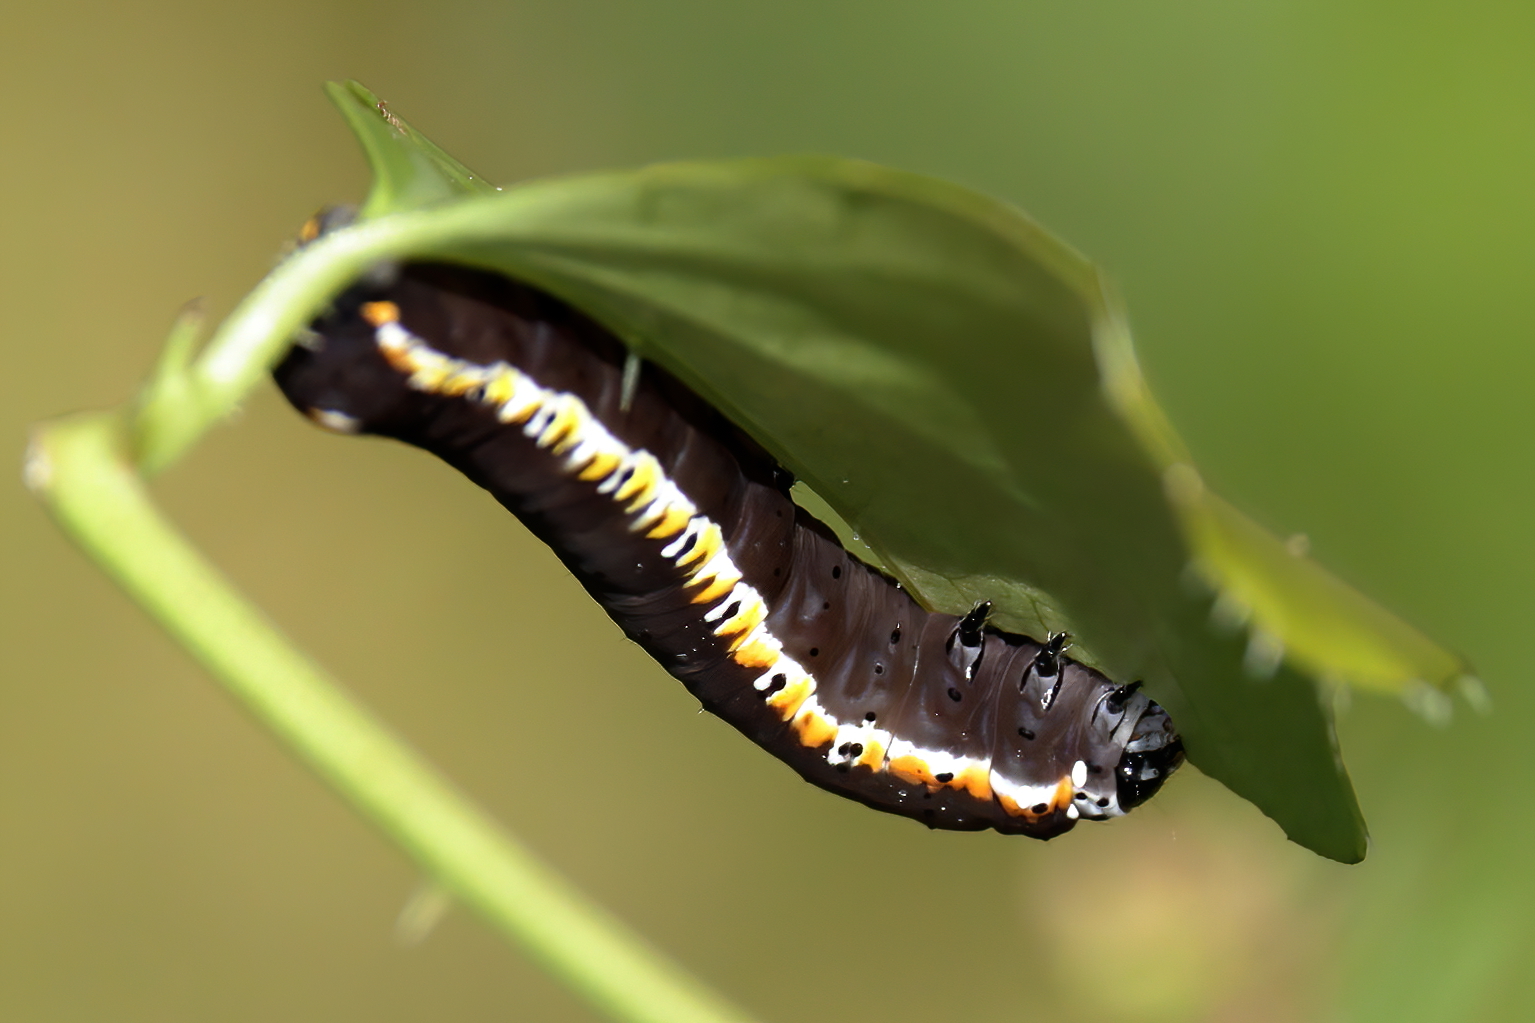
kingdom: Animalia
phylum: Arthropoda
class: Insecta
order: Lepidoptera
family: Noctuidae
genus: Acherdoa
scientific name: Acherdoa ferraria
